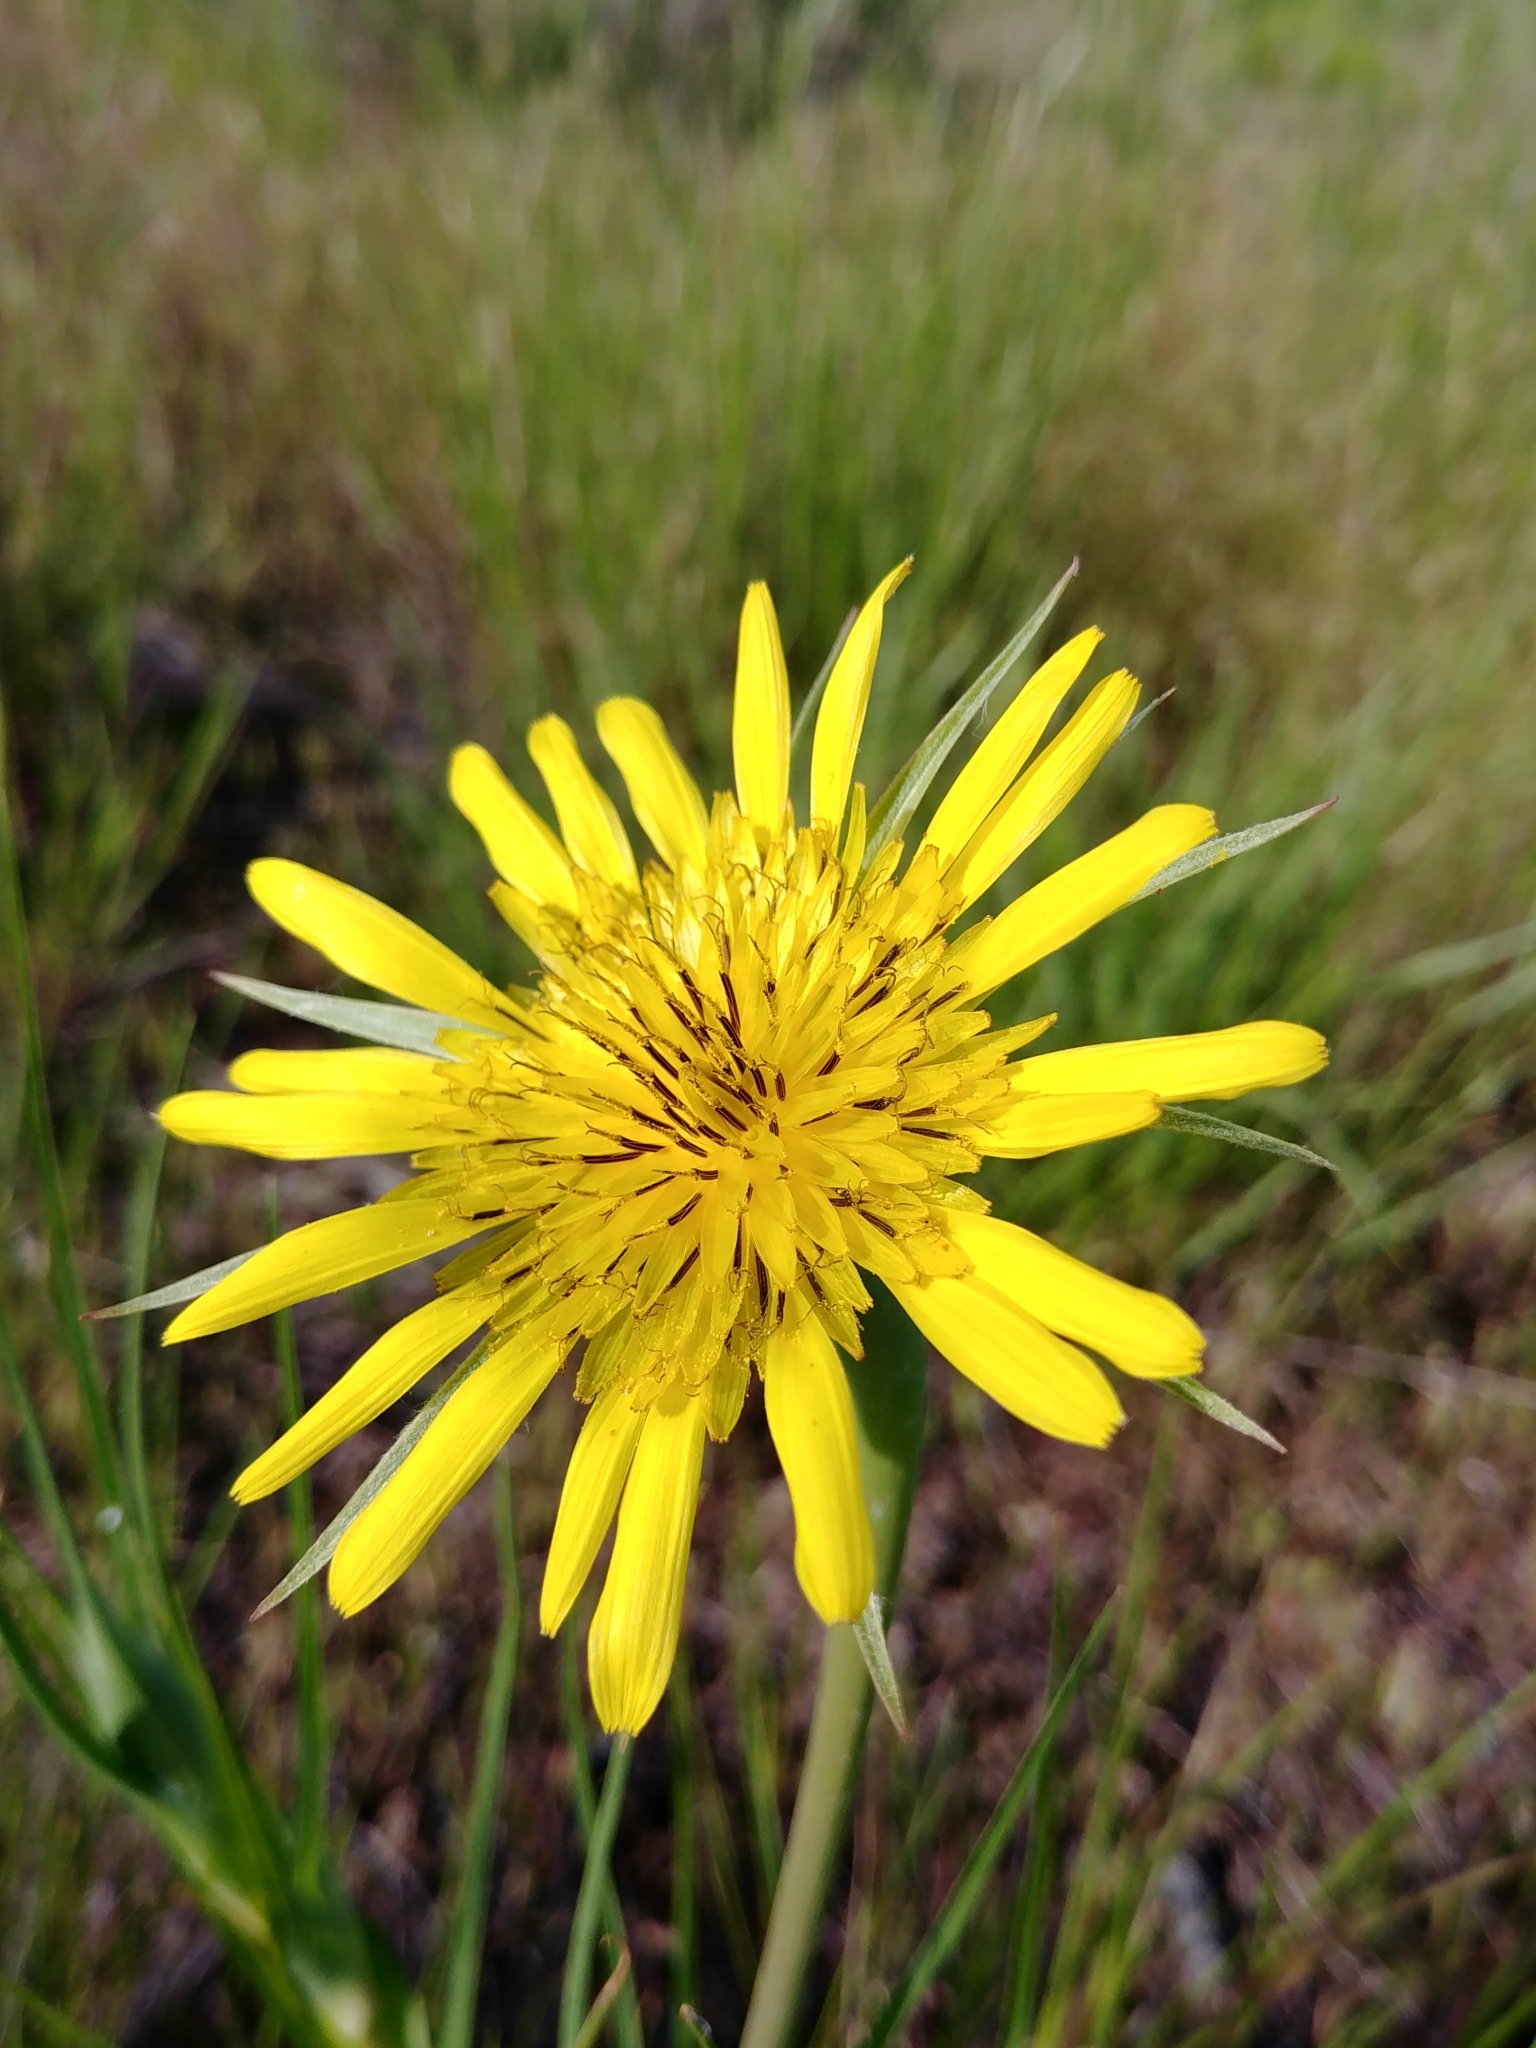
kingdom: Plantae
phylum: Tracheophyta
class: Magnoliopsida
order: Asterales
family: Asteraceae
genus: Tragopogon
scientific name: Tragopogon dubius
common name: Yellow salsify
